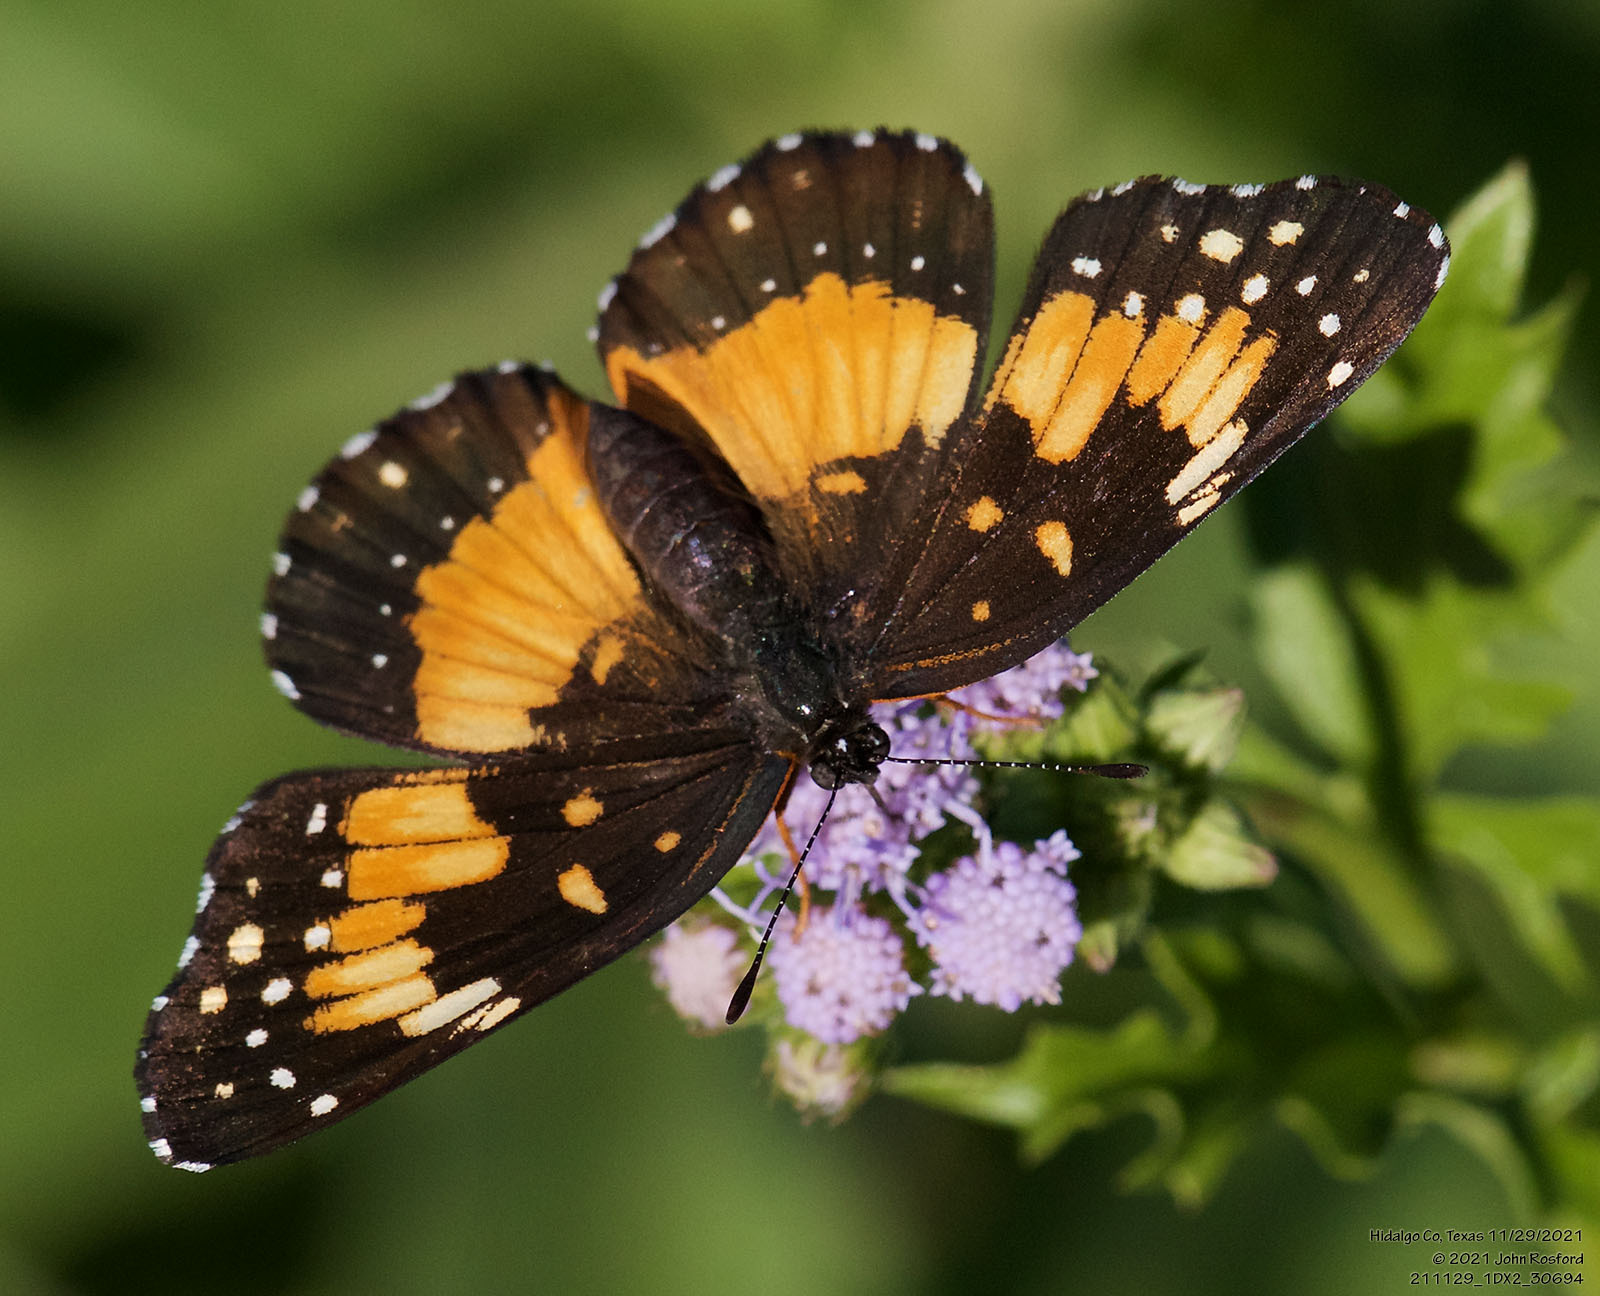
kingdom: Animalia
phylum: Arthropoda
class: Insecta
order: Lepidoptera
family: Nymphalidae
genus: Chlosyne
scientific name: Chlosyne lacinia
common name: Bordered patch
